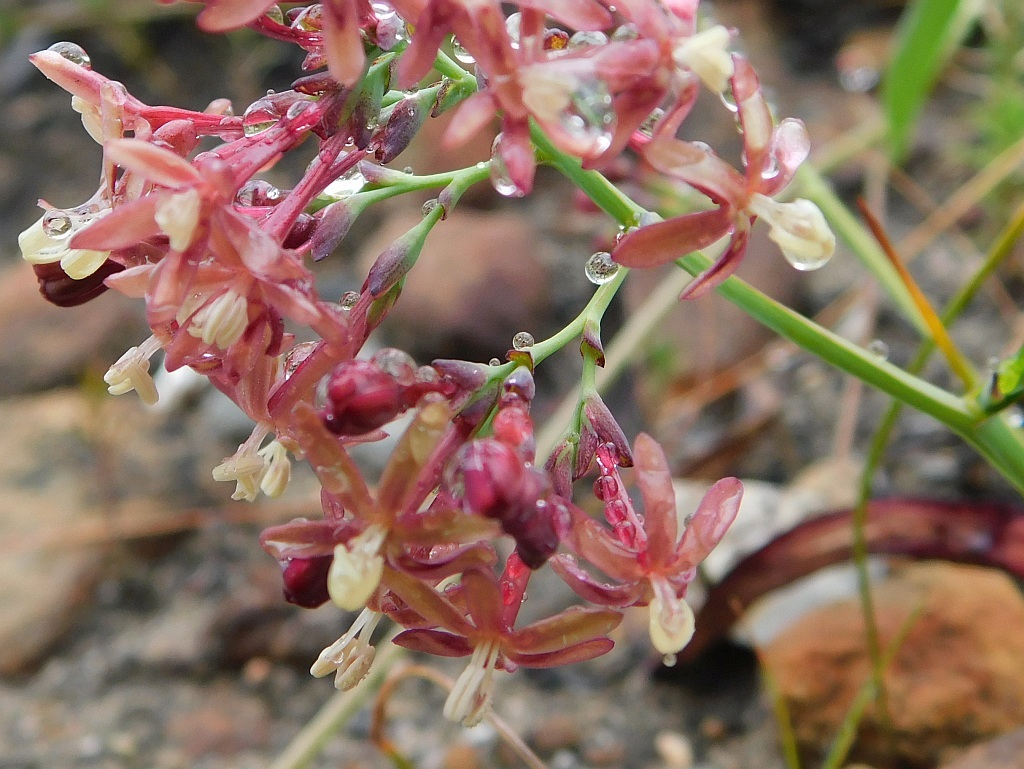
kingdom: Plantae
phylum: Tracheophyta
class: Liliopsida
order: Asparagales
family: Iridaceae
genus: Codonorhiza
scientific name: Codonorhiza micrantha
